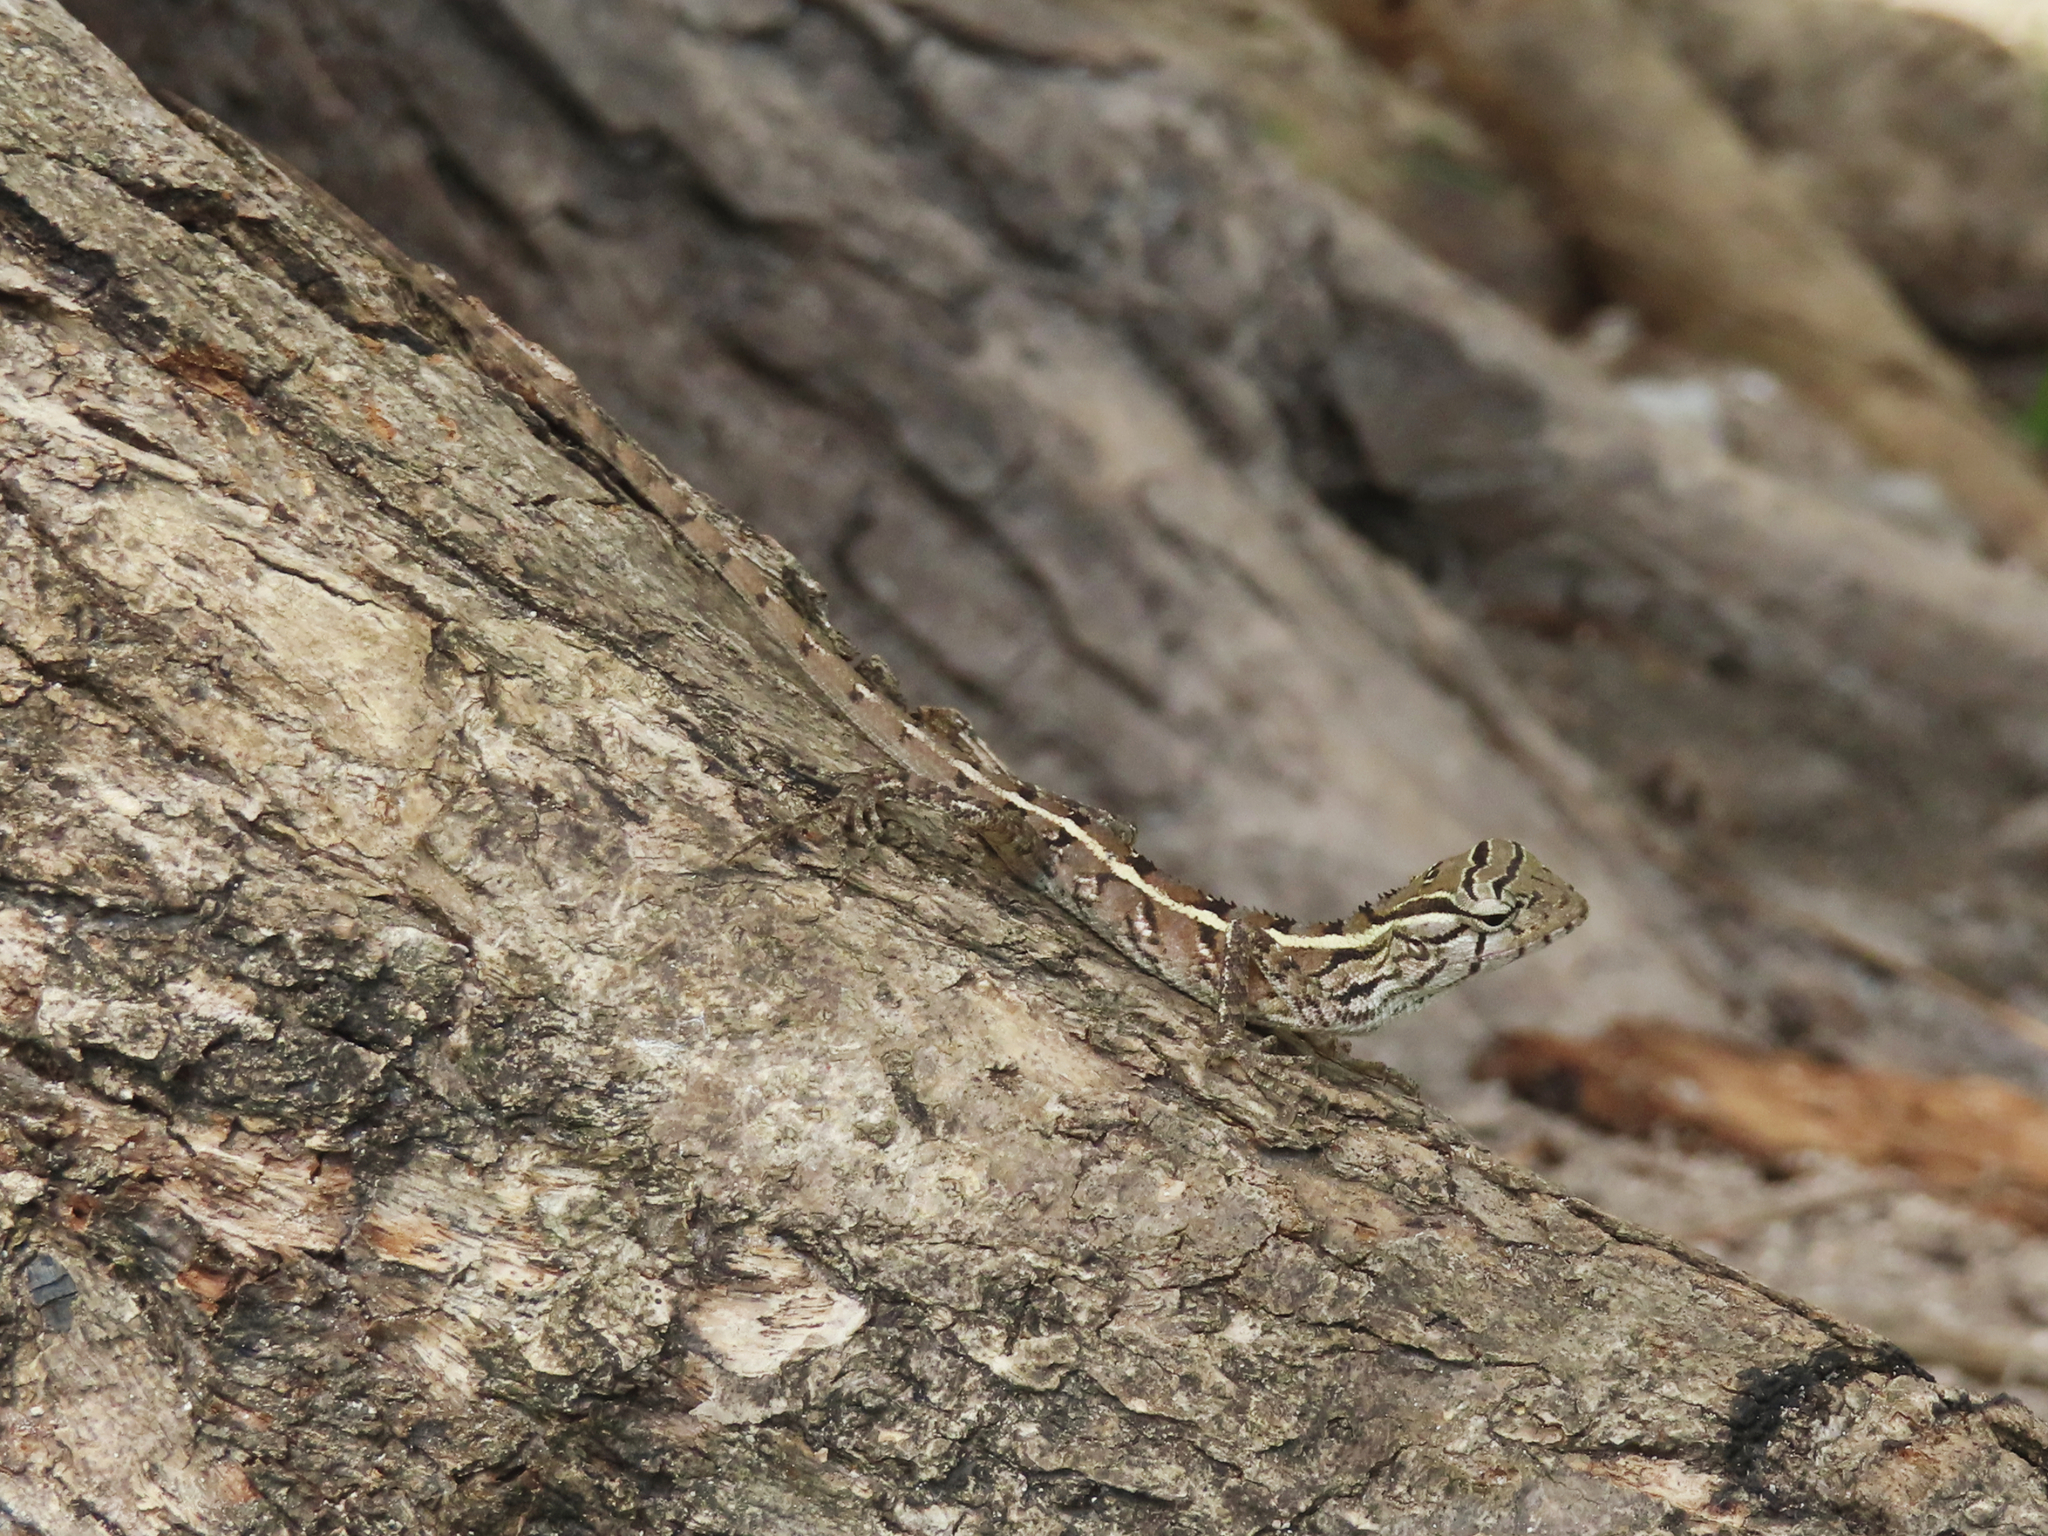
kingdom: Animalia
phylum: Chordata
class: Squamata
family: Agamidae
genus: Calotes
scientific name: Calotes versicolor
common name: Oriental garden lizard
